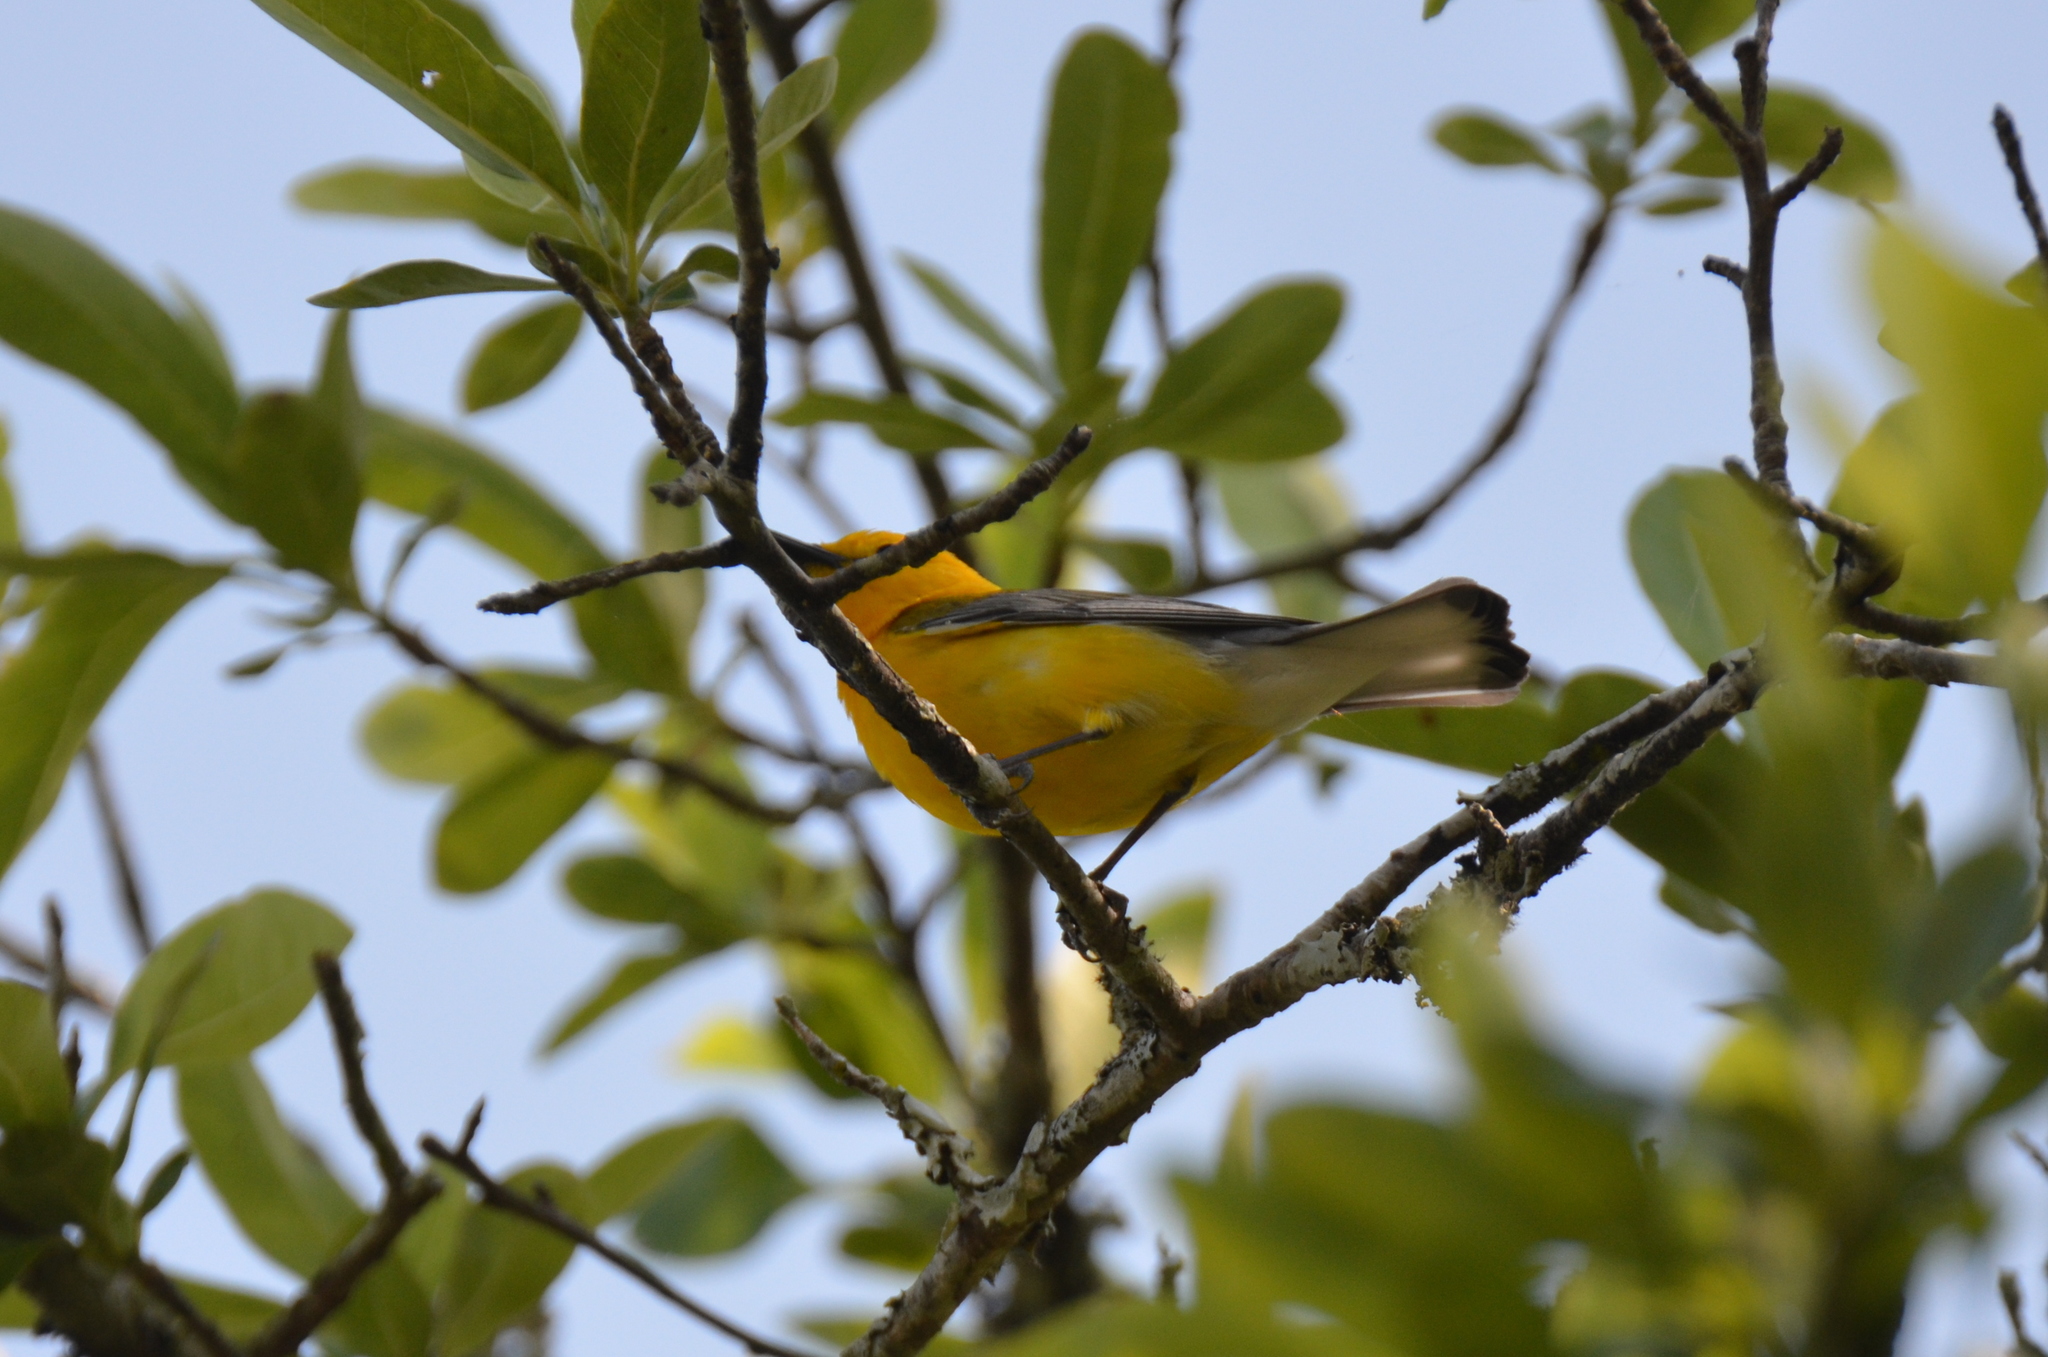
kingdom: Animalia
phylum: Chordata
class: Aves
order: Passeriformes
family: Parulidae
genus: Protonotaria
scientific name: Protonotaria citrea
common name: Prothonotary warbler
